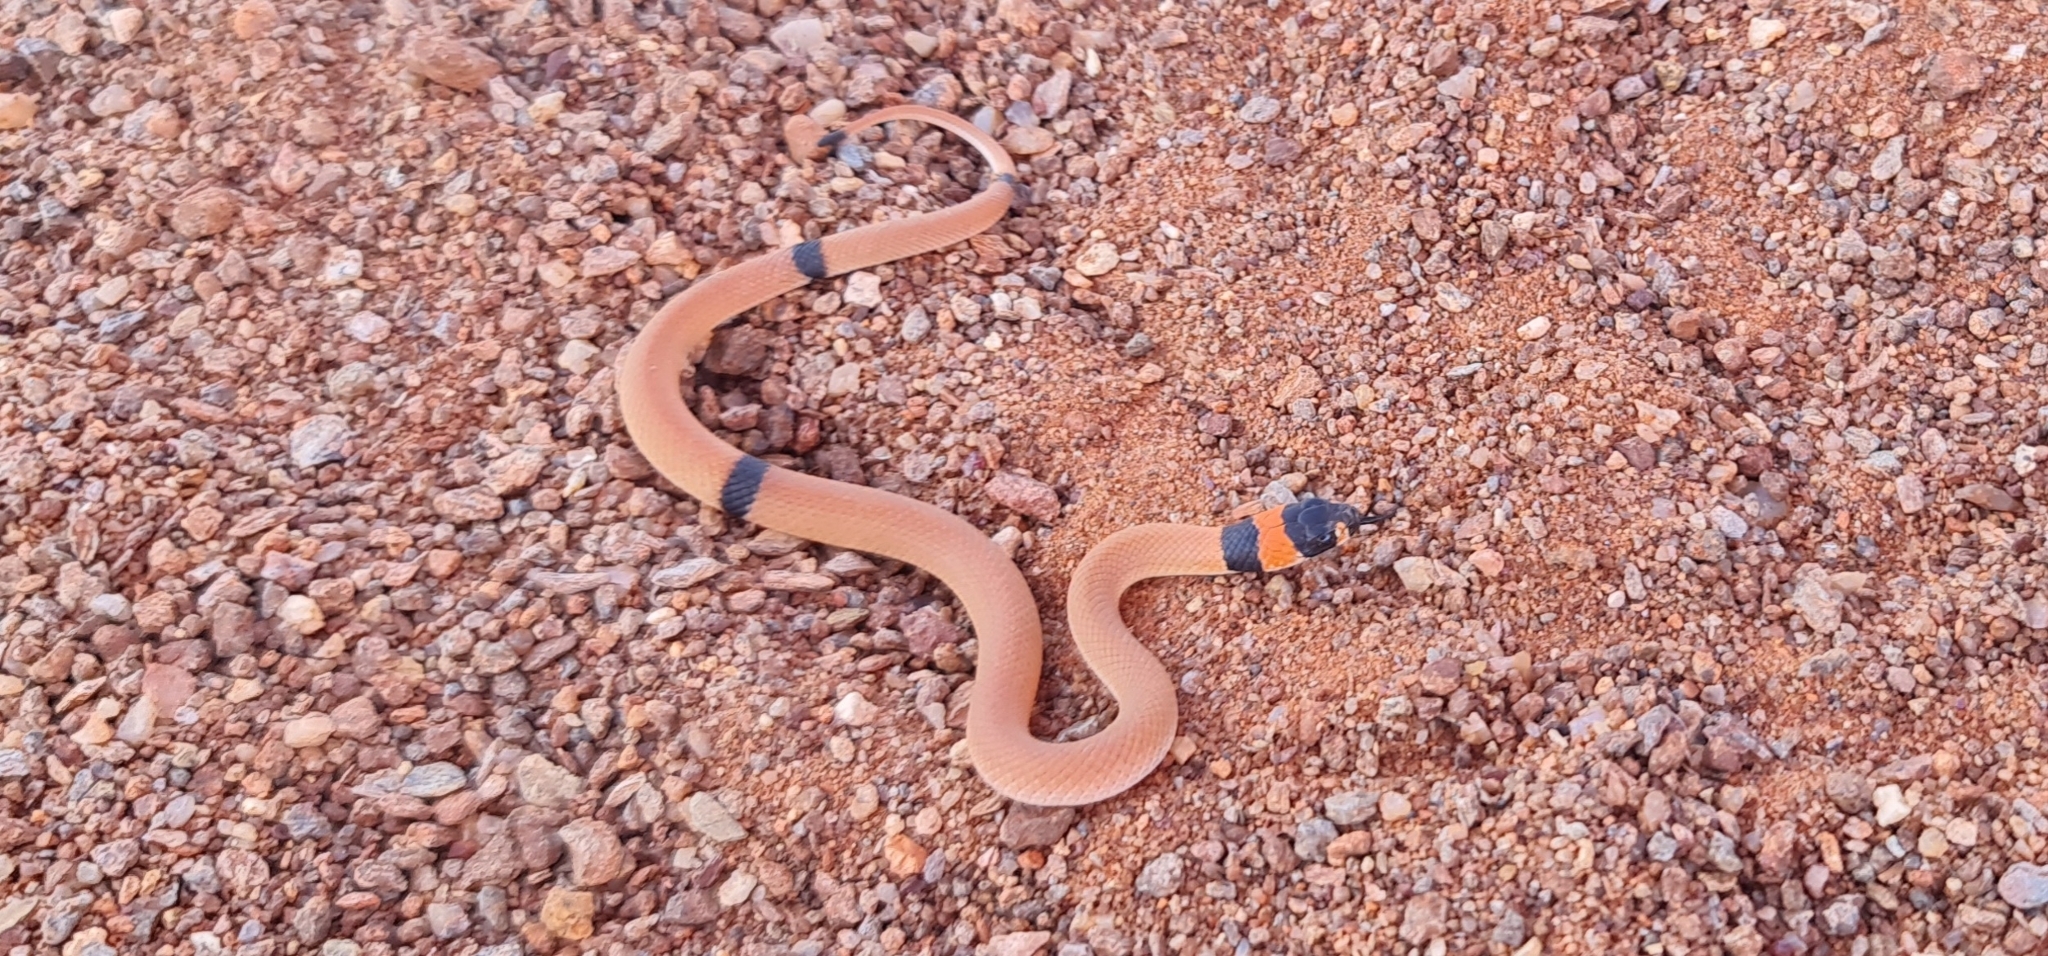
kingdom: Animalia
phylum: Chordata
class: Squamata
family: Elapidae
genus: Pseudonaja
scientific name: Pseudonaja modesta
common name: Ringed brown snake
